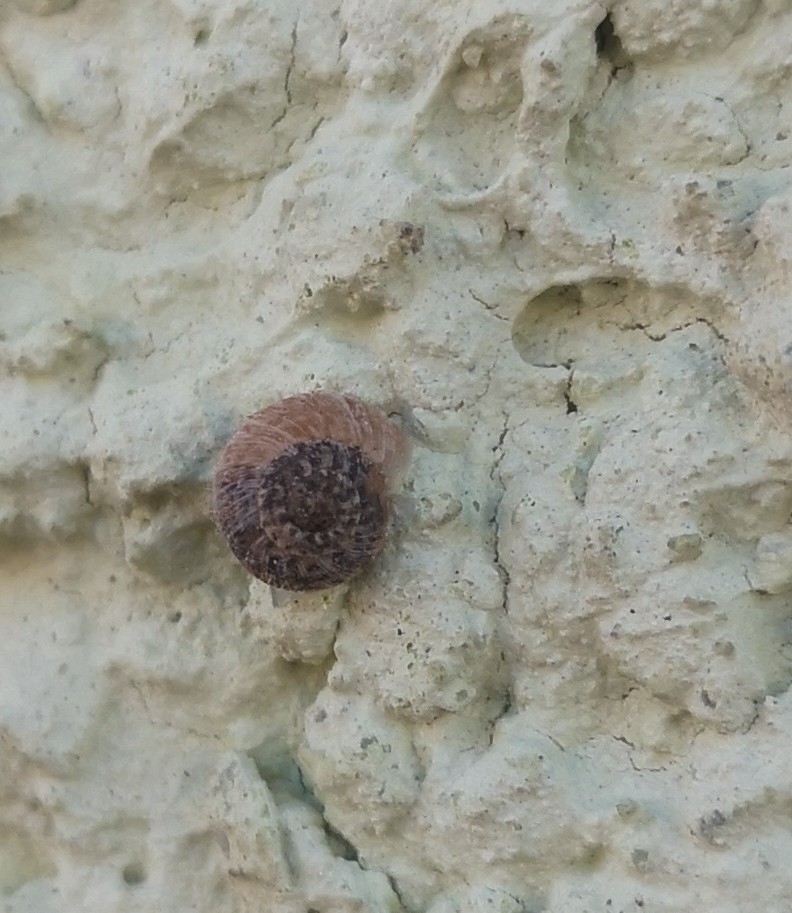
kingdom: Animalia
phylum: Mollusca
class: Gastropoda
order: Stylommatophora
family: Geomitridae
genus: Xerotricha
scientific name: Xerotricha conspurcata
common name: Snail
